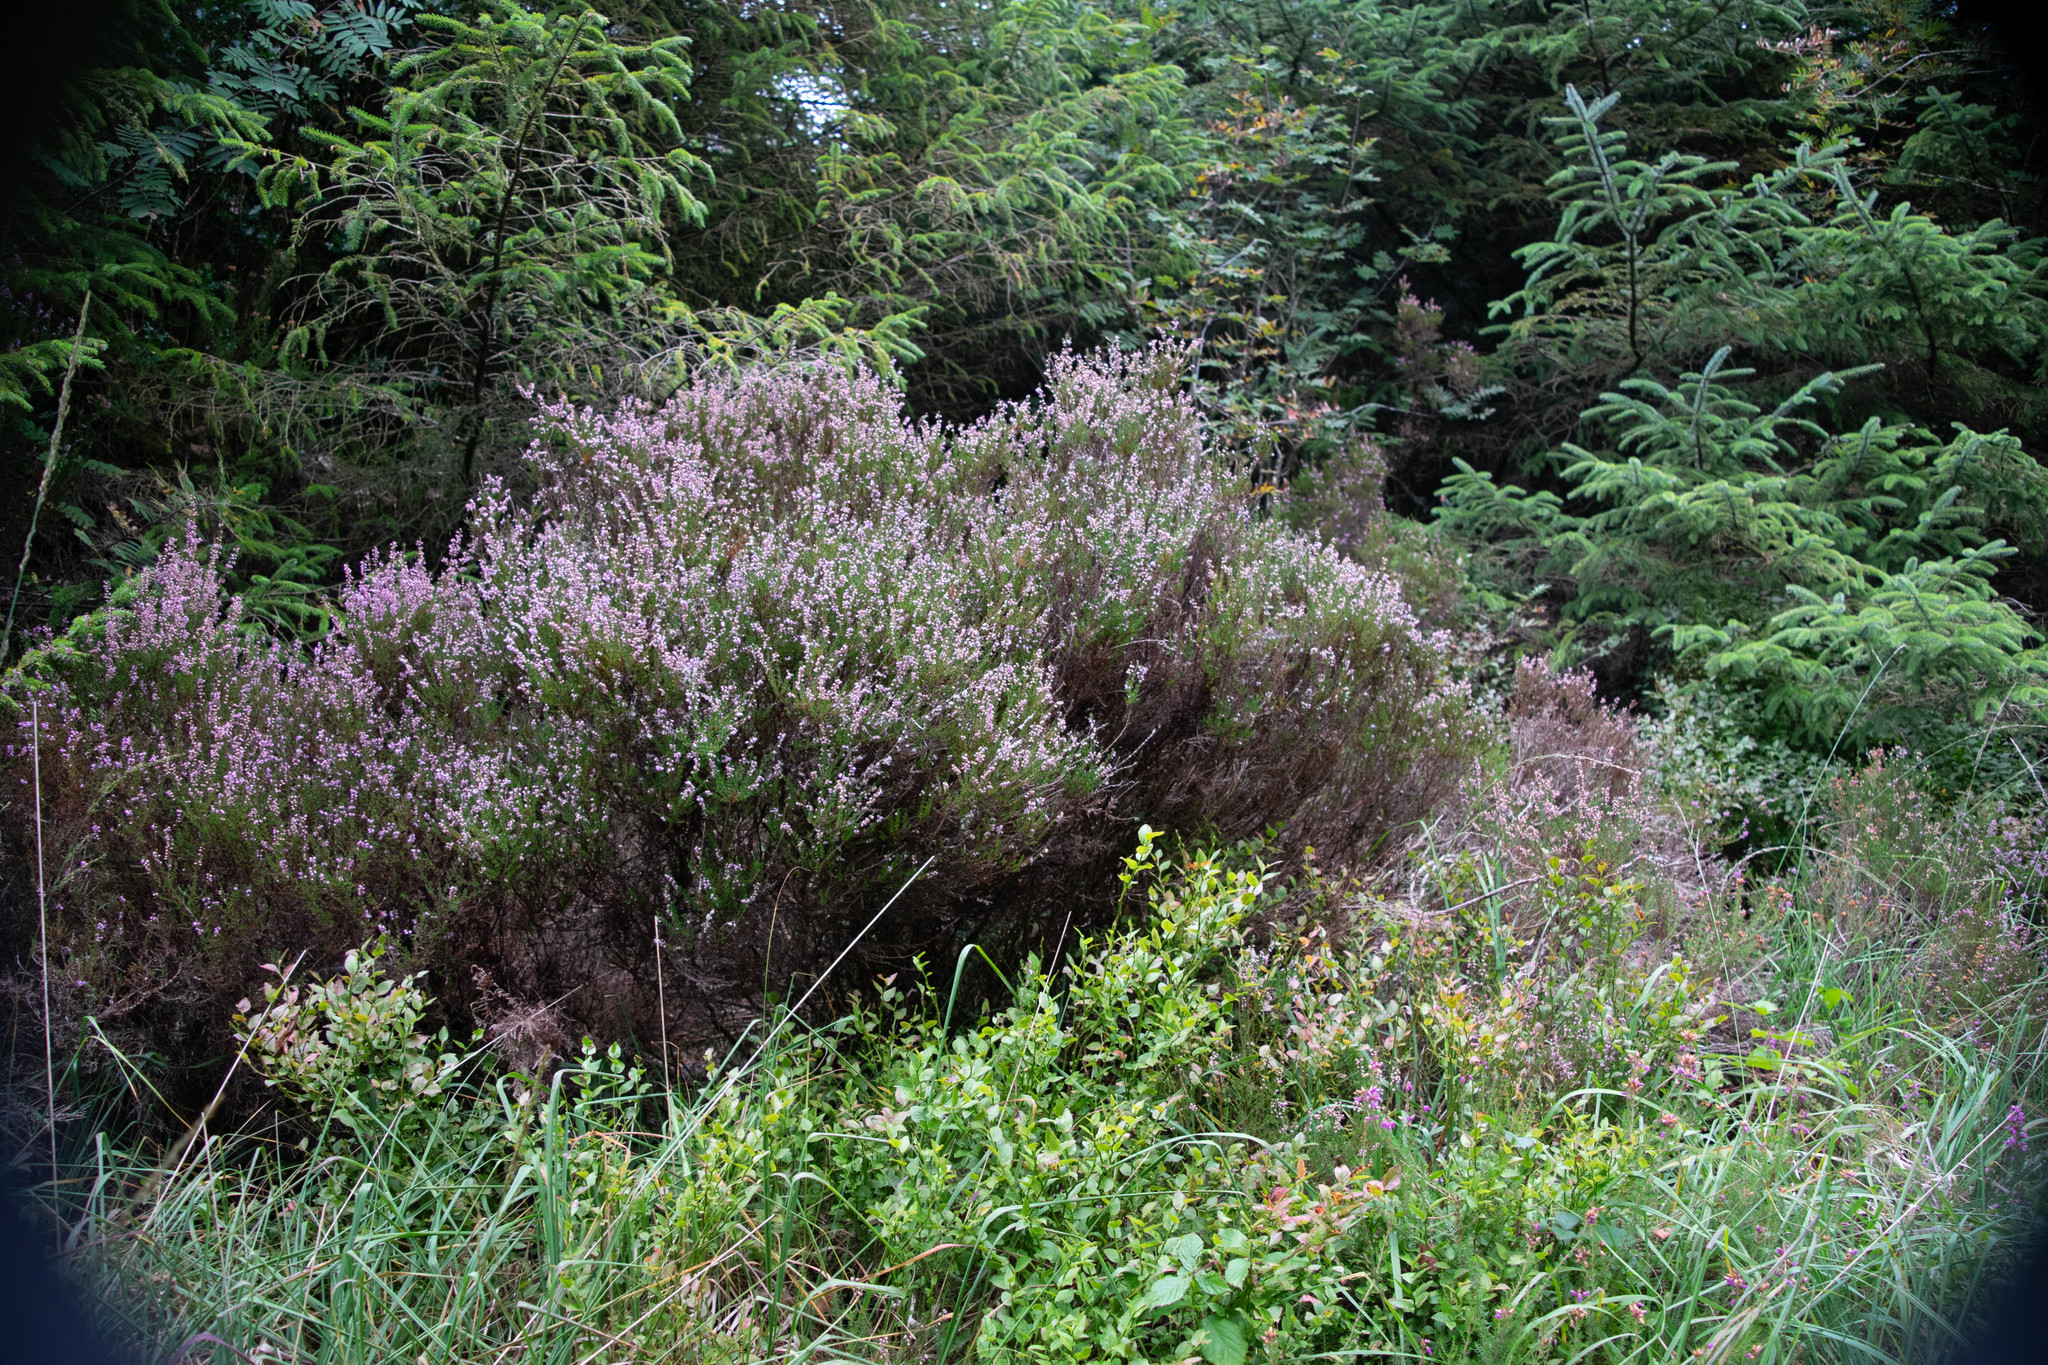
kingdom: Plantae
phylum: Tracheophyta
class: Magnoliopsida
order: Ericales
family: Ericaceae
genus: Calluna
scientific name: Calluna vulgaris
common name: Heather
